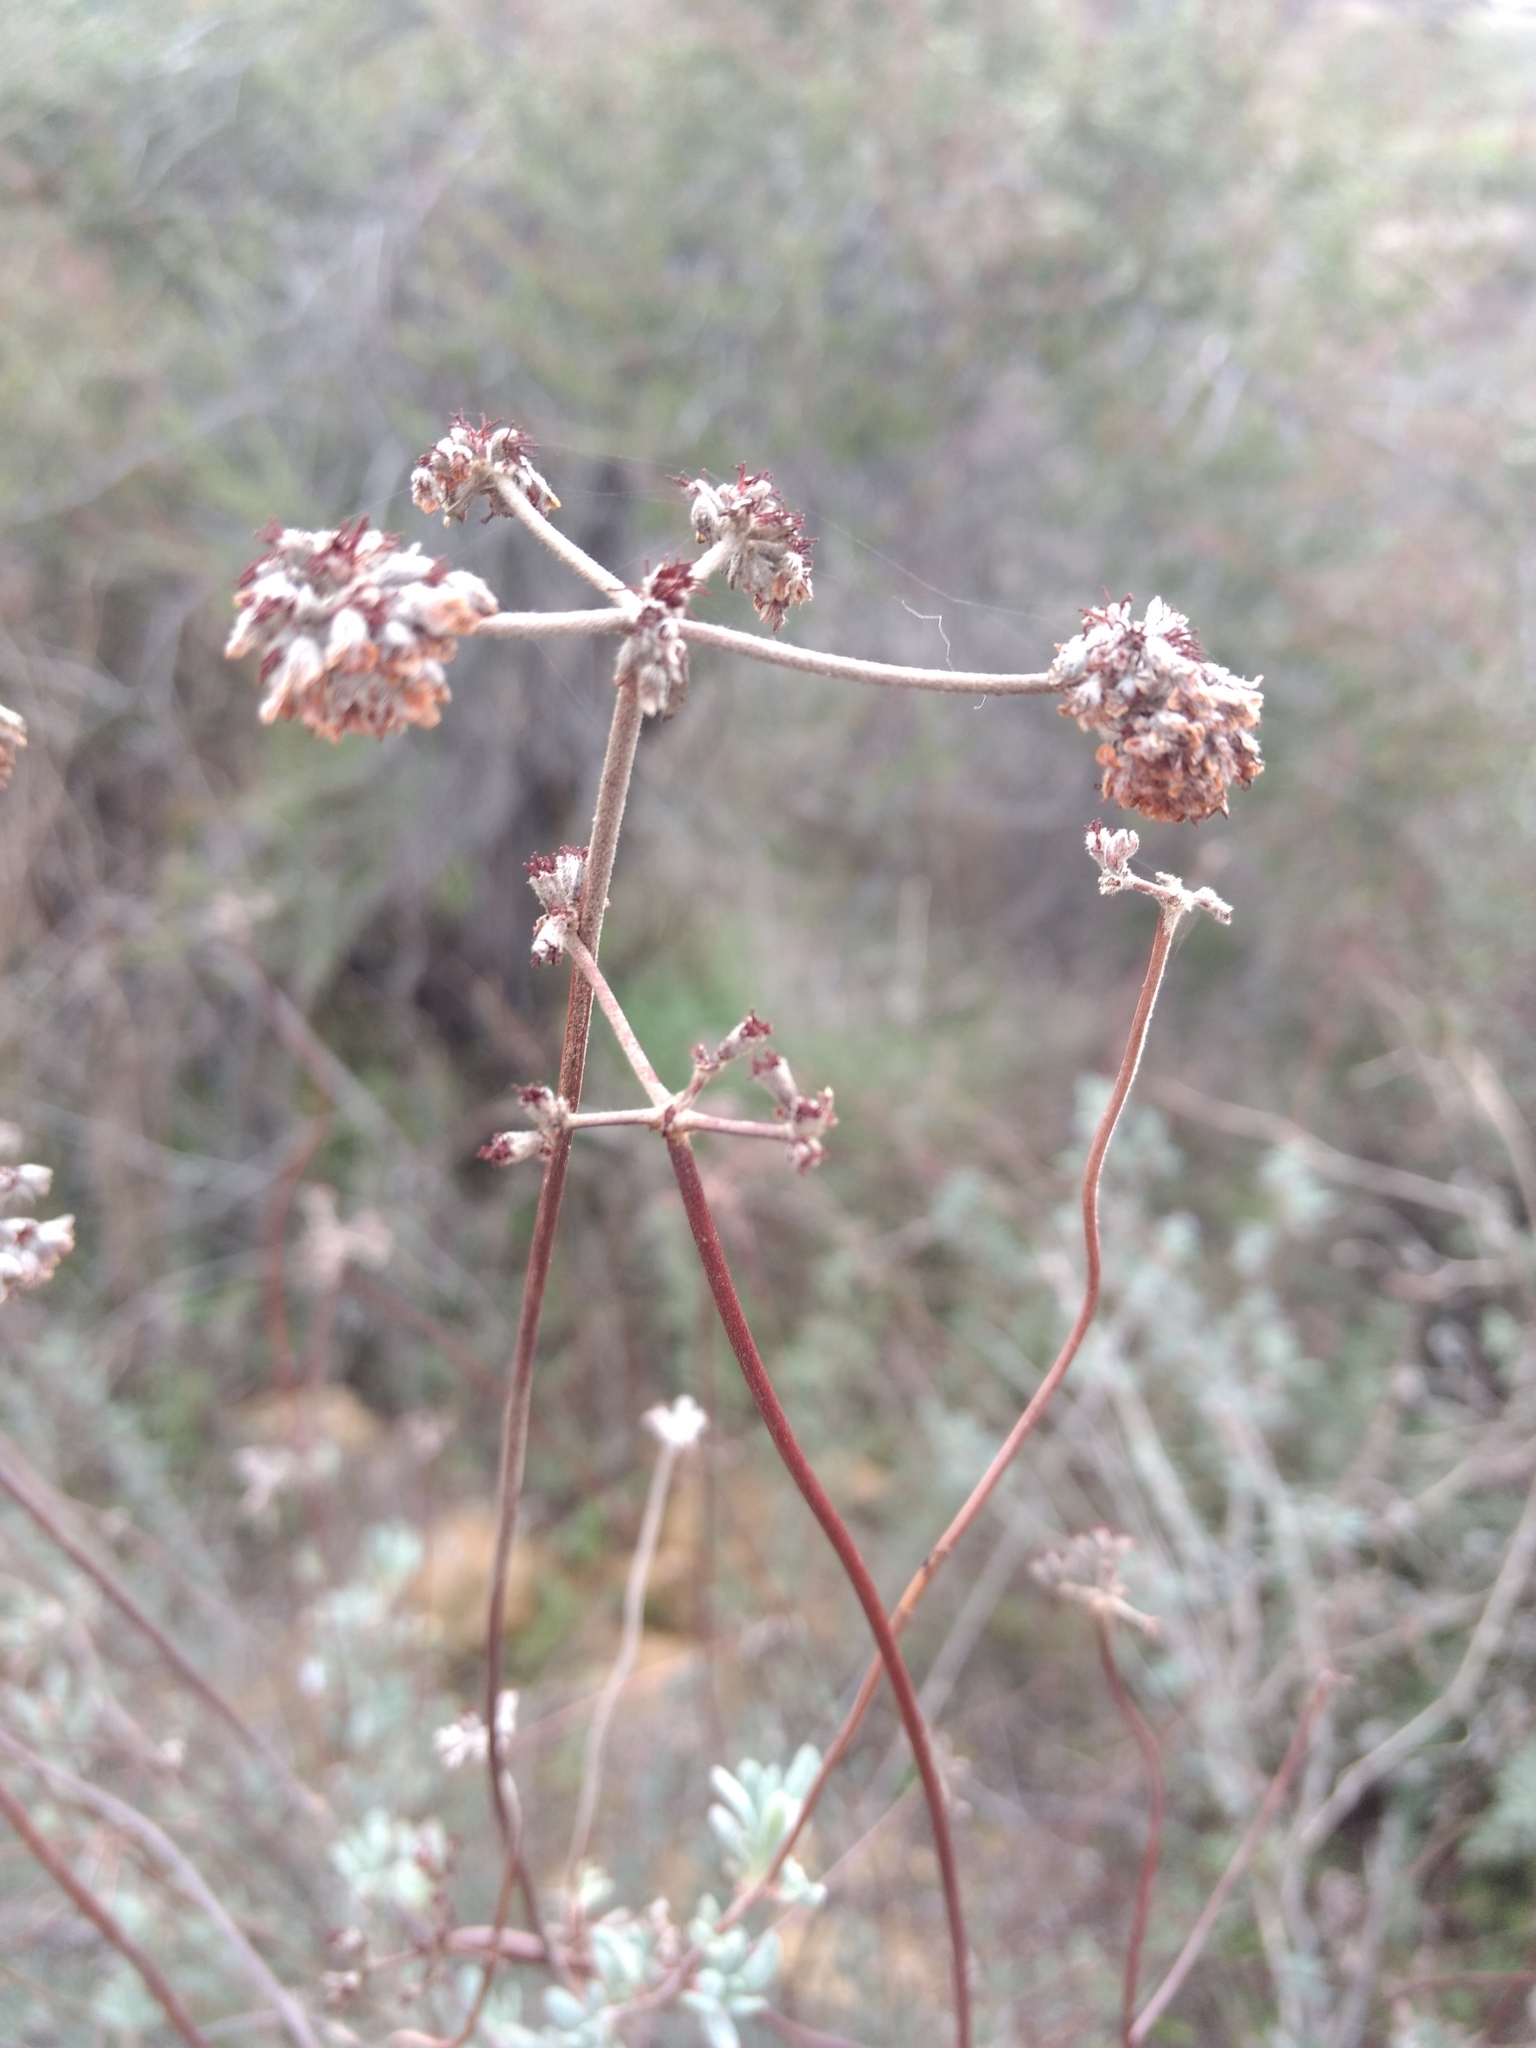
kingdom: Plantae
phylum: Tracheophyta
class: Magnoliopsida
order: Caryophyllales
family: Polygonaceae
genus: Eriogonum
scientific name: Eriogonum fasciculatum
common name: California wild buckwheat
